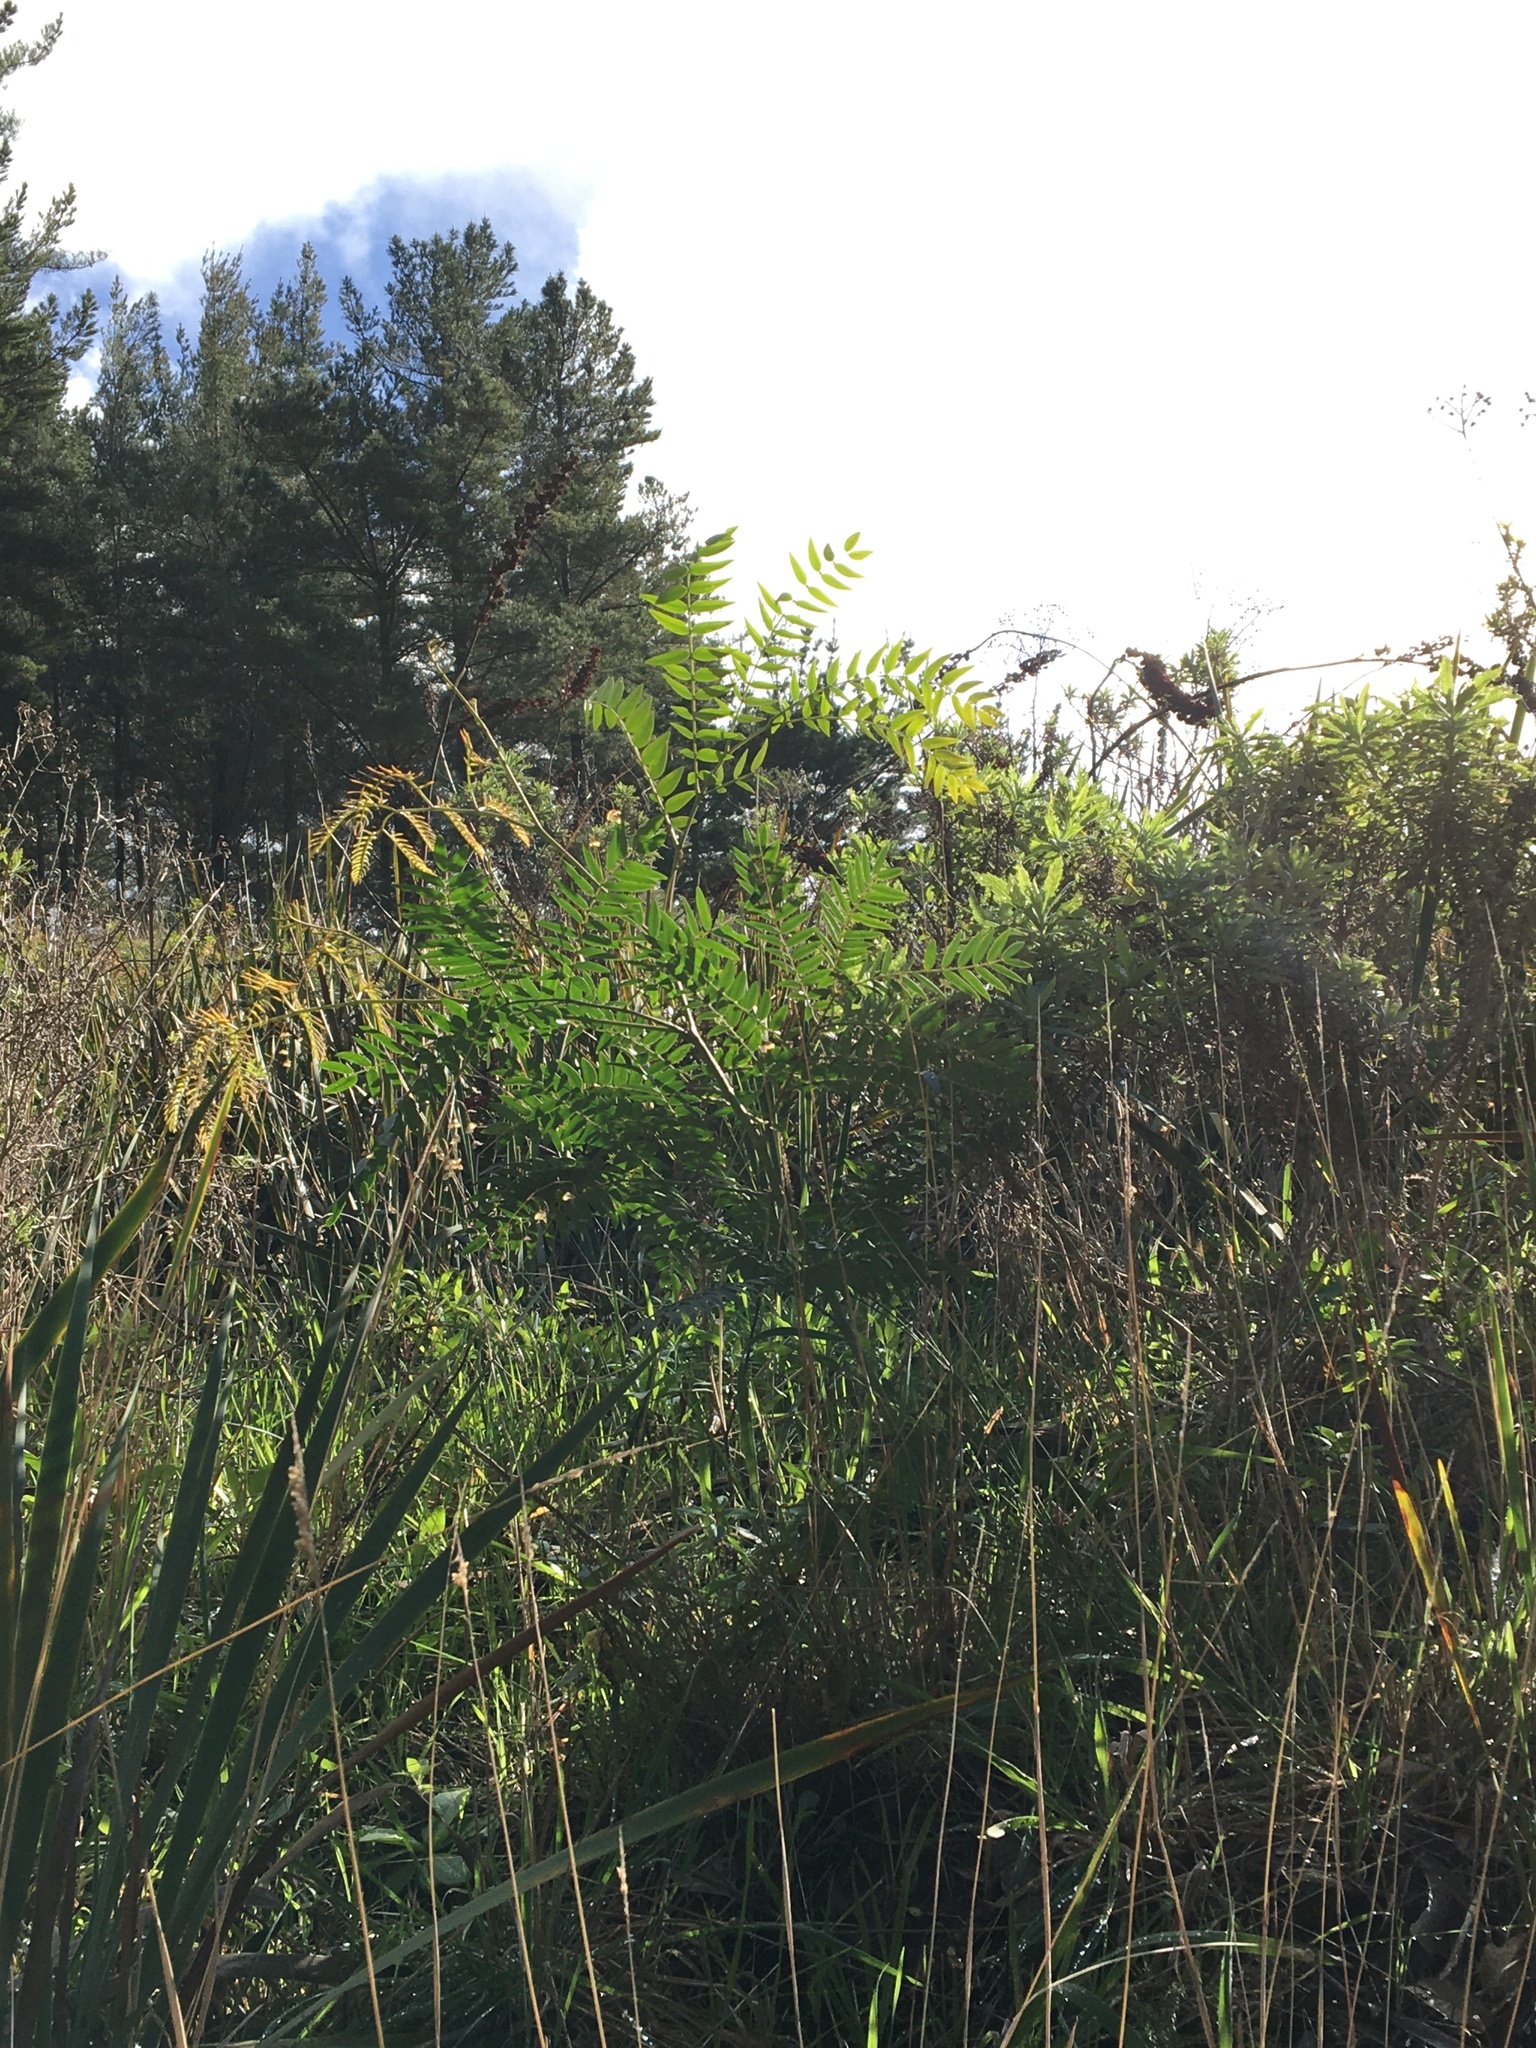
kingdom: Plantae
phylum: Tracheophyta
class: Magnoliopsida
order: Fabales
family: Fabaceae
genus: Acacia
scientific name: Acacia elata
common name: Cedar wattle
